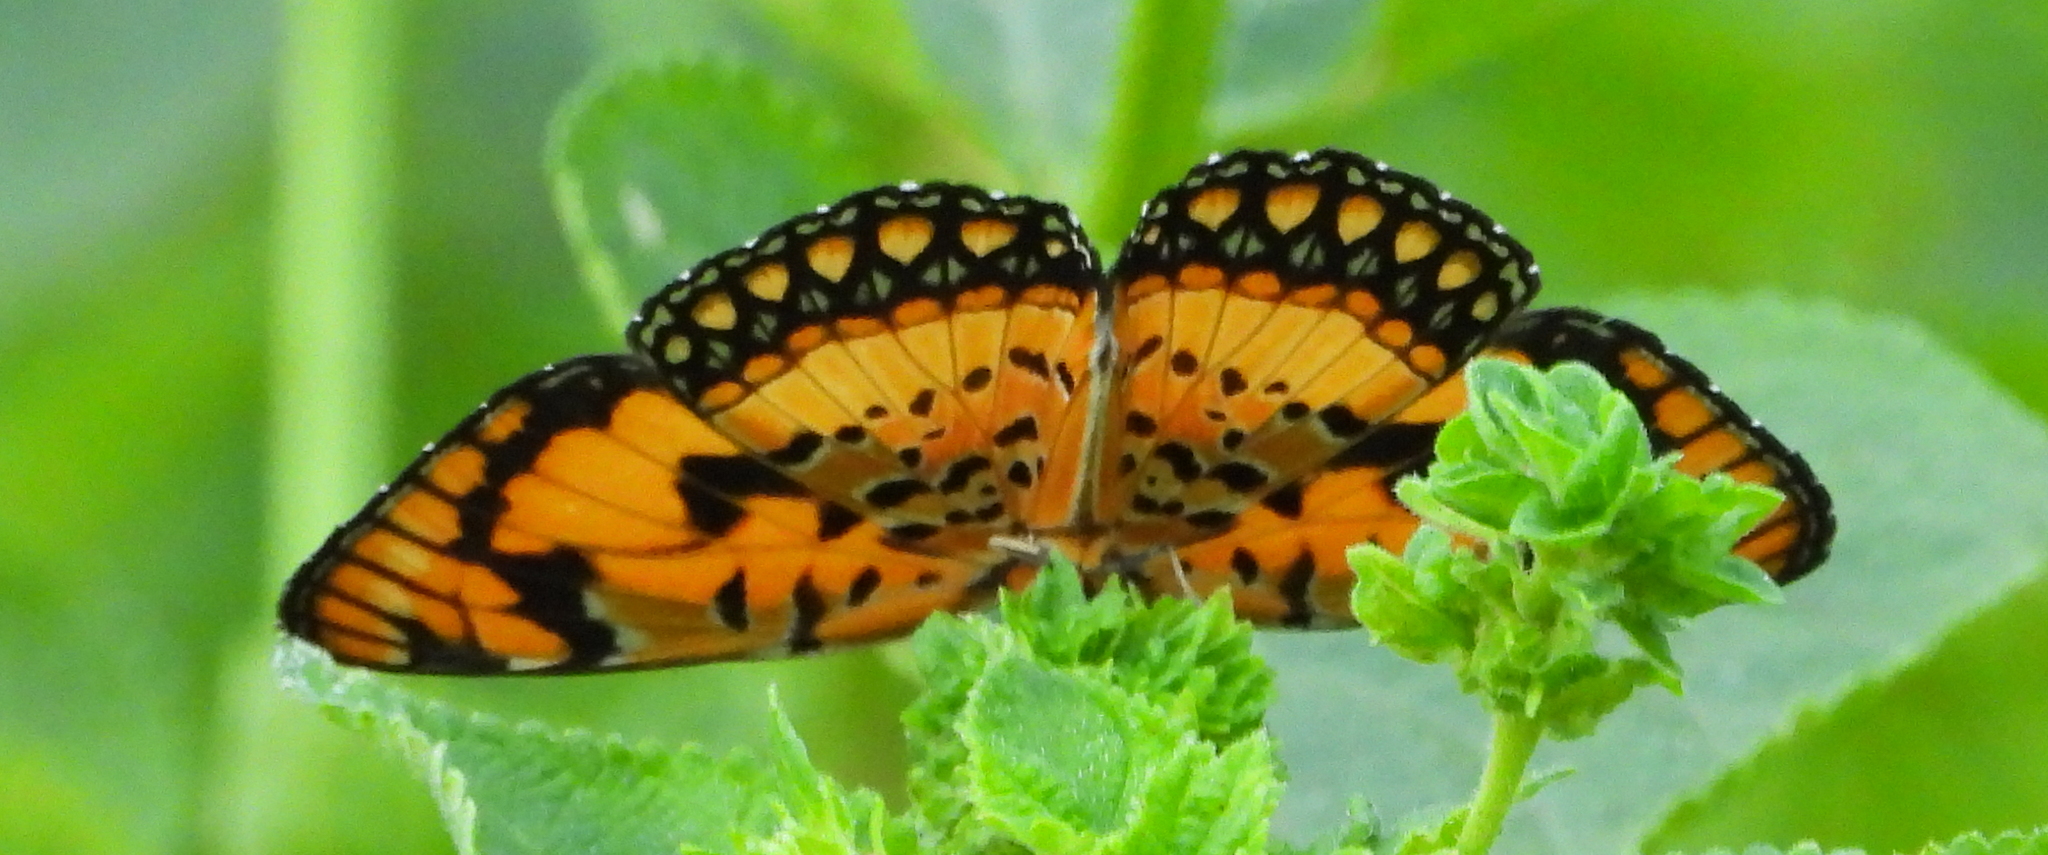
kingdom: Animalia
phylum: Arthropoda
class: Insecta
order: Lepidoptera
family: Nymphalidae
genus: Byblia
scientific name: Byblia anvatara
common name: African joker
